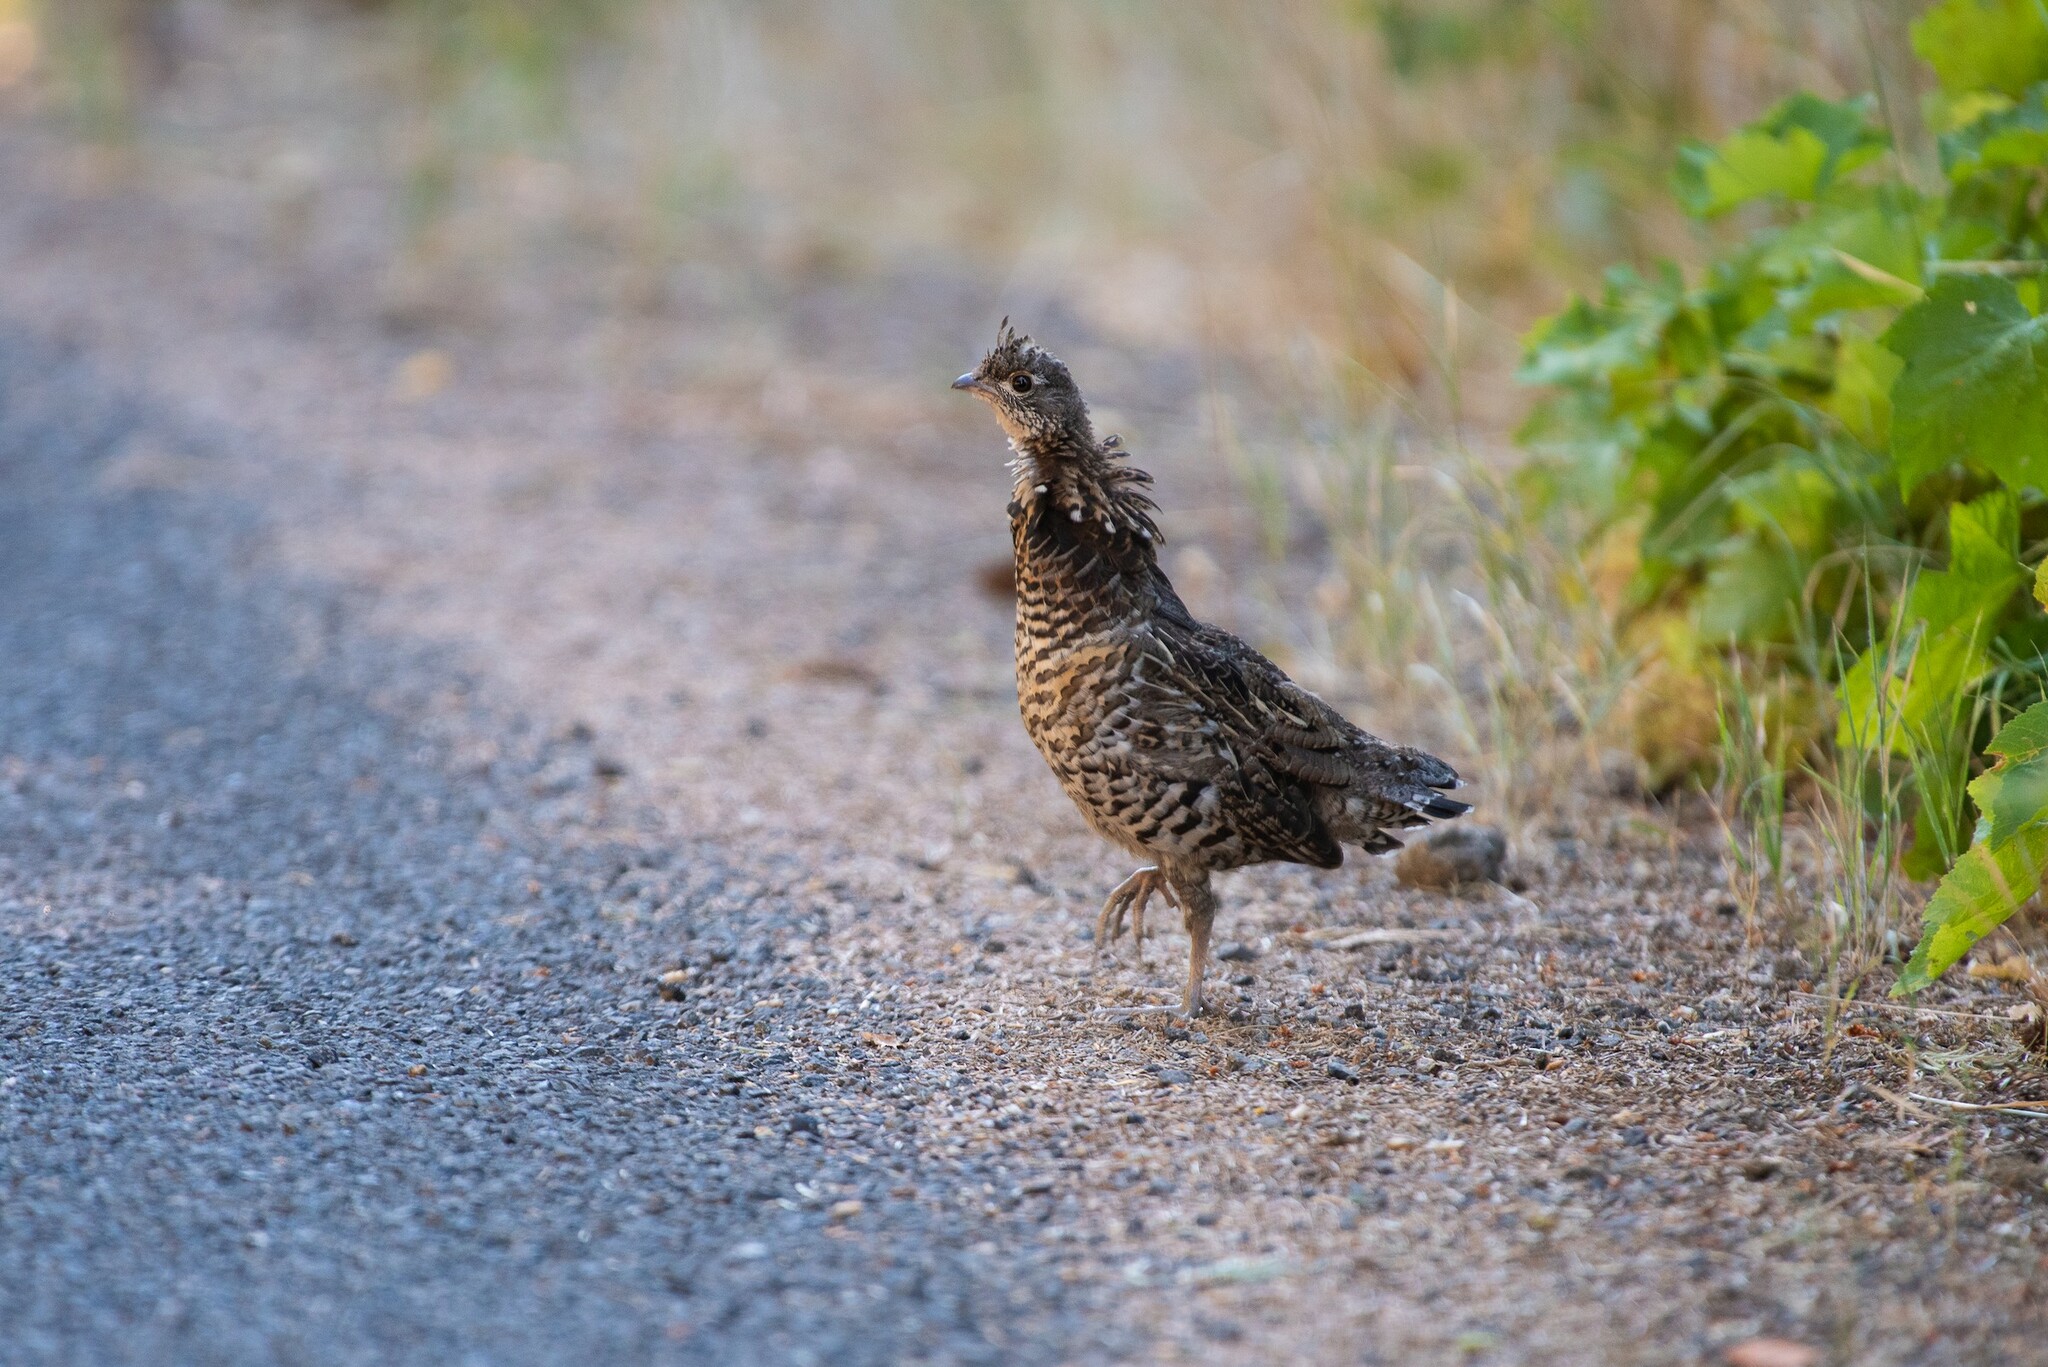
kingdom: Animalia
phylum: Chordata
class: Aves
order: Galliformes
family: Phasianidae
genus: Bonasa
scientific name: Bonasa umbellus
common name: Ruffed grouse
